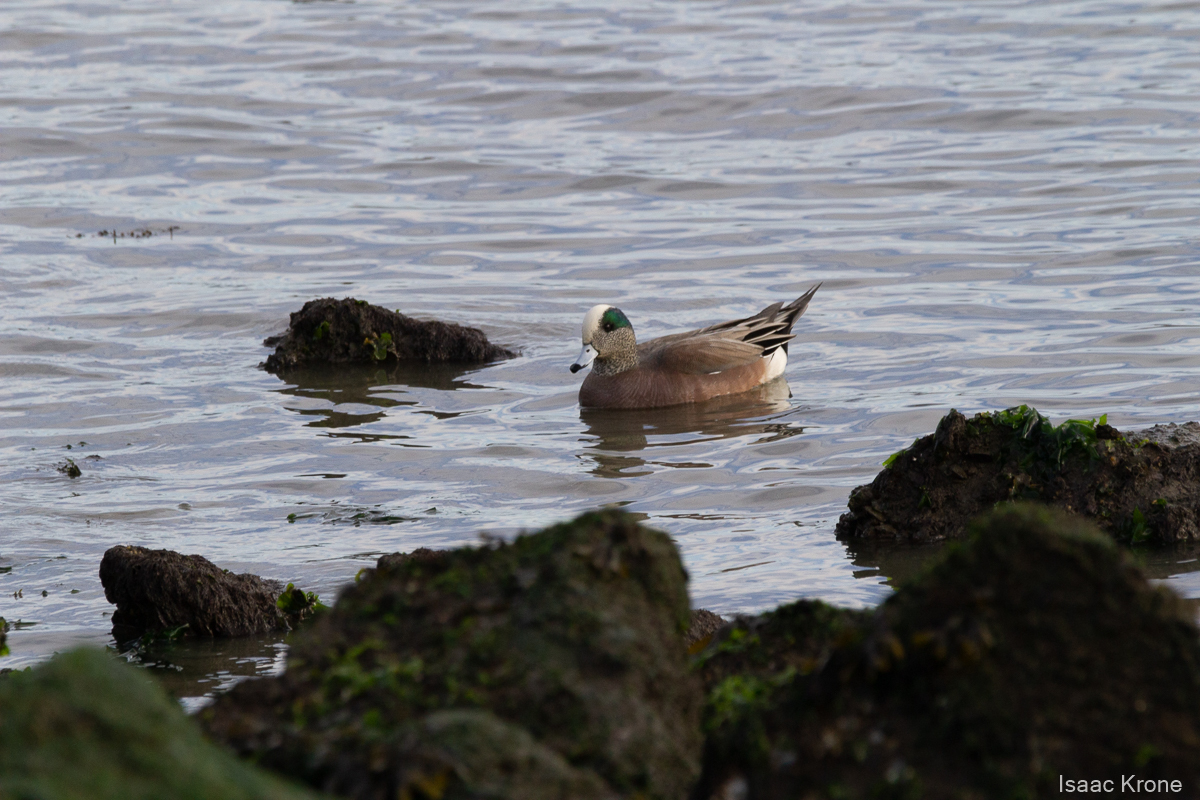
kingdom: Animalia
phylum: Chordata
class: Aves
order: Anseriformes
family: Anatidae
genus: Mareca
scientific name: Mareca americana
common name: American wigeon
